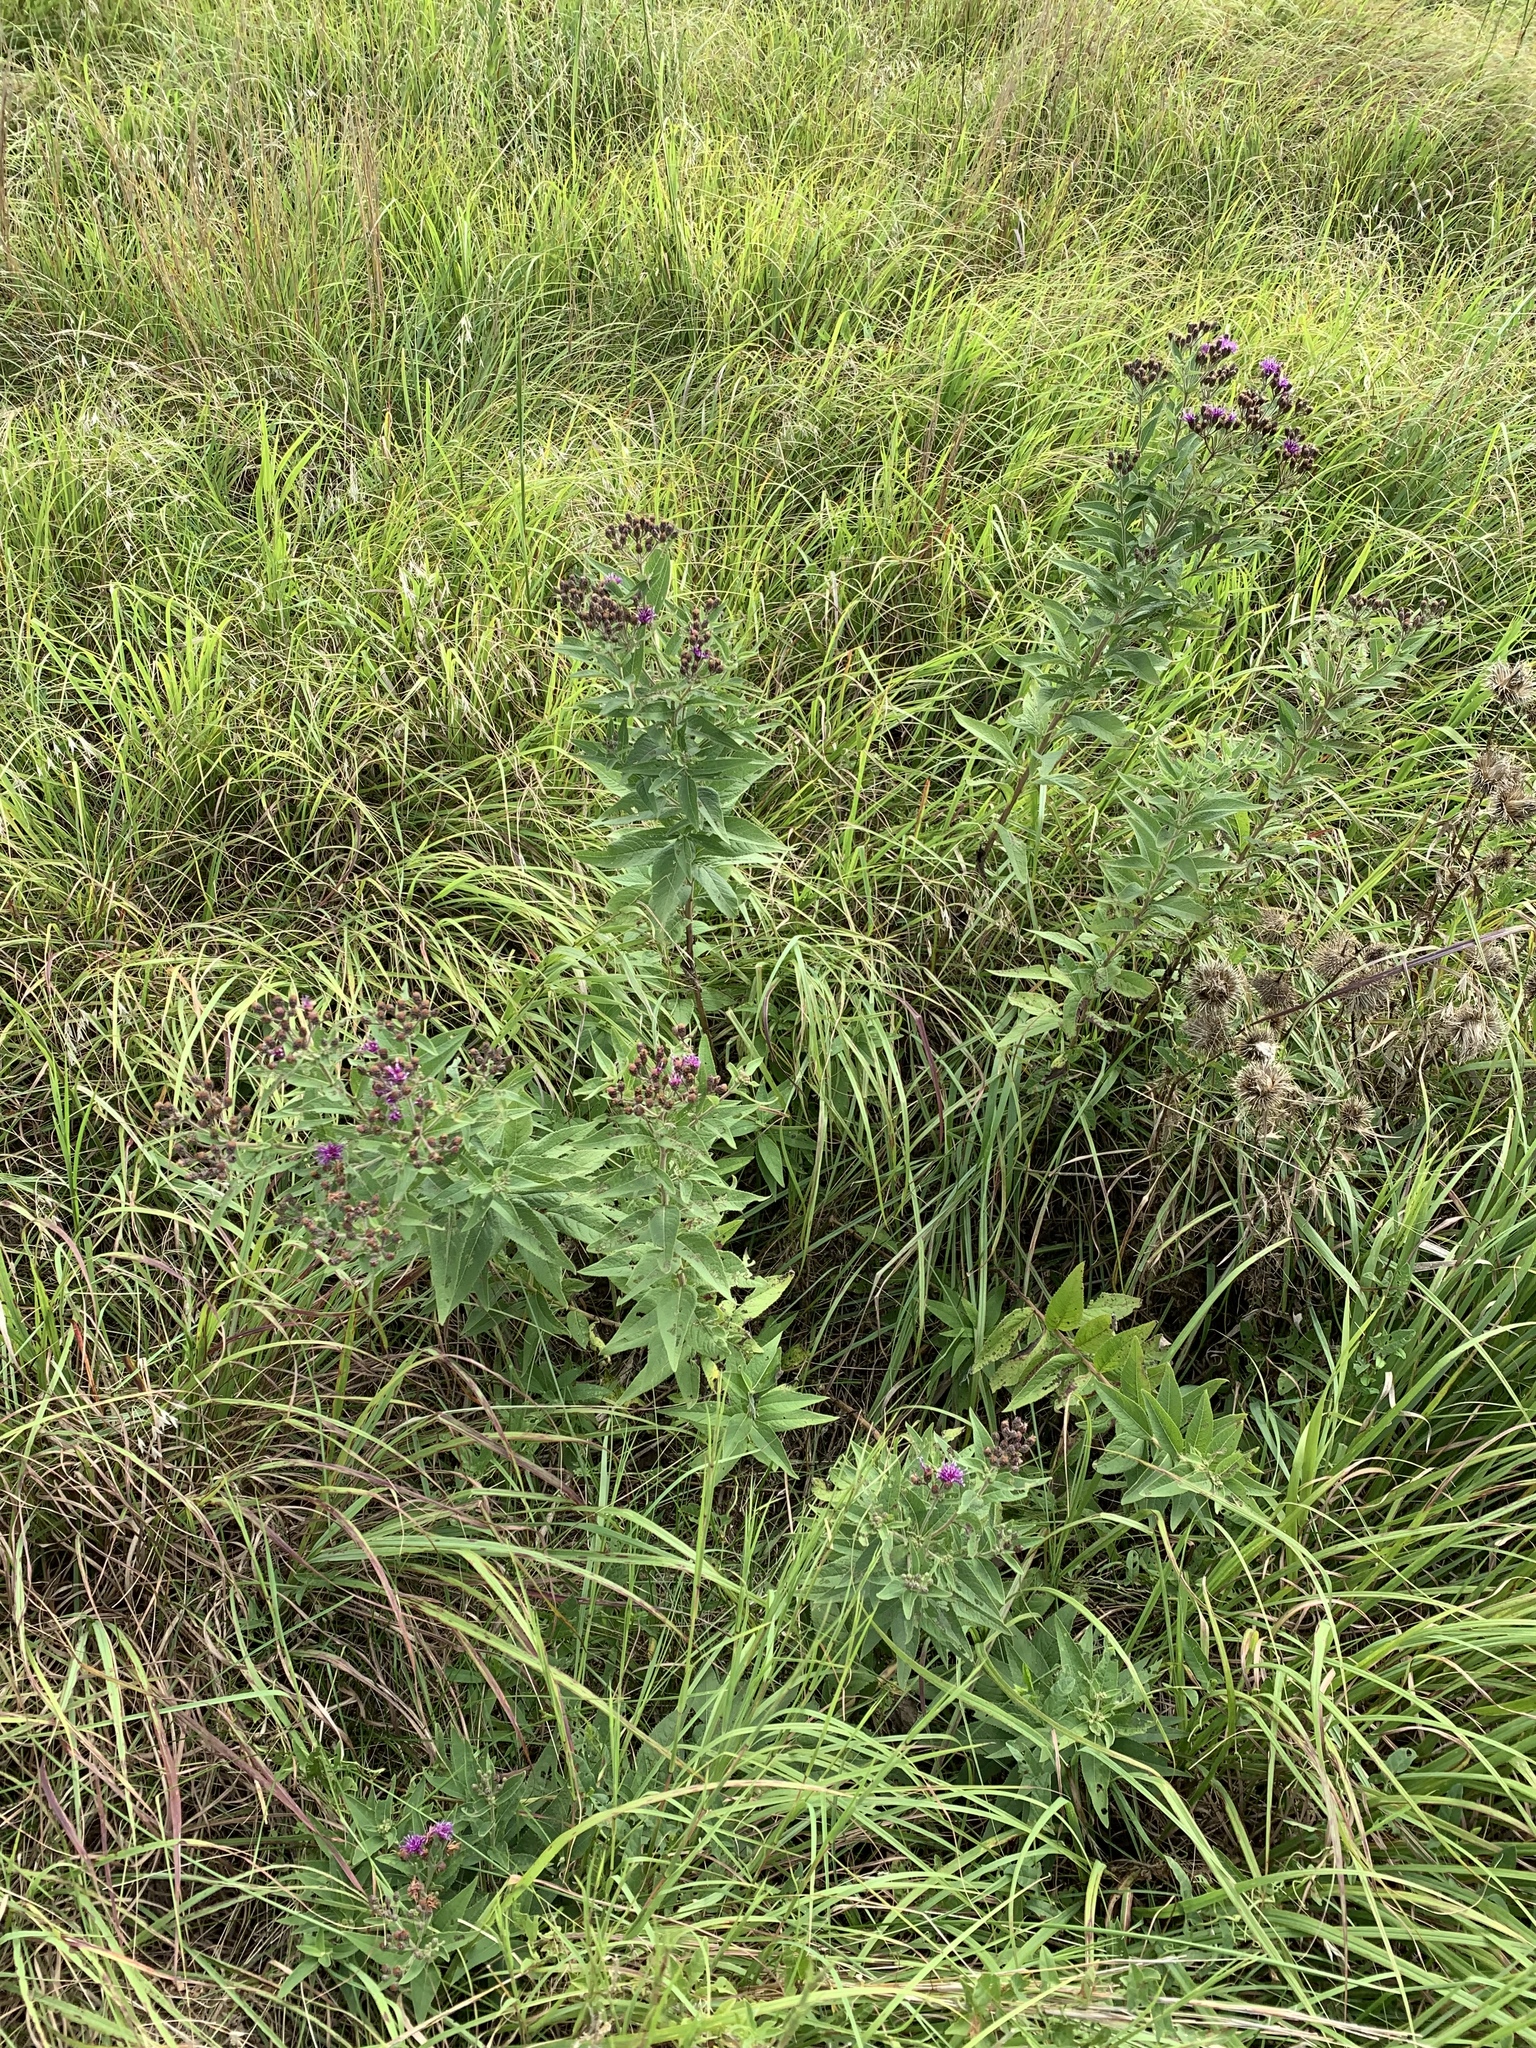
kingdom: Plantae
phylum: Tracheophyta
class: Magnoliopsida
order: Asterales
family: Asteraceae
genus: Vernonia
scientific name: Vernonia baldwinii
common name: Western ironweed
